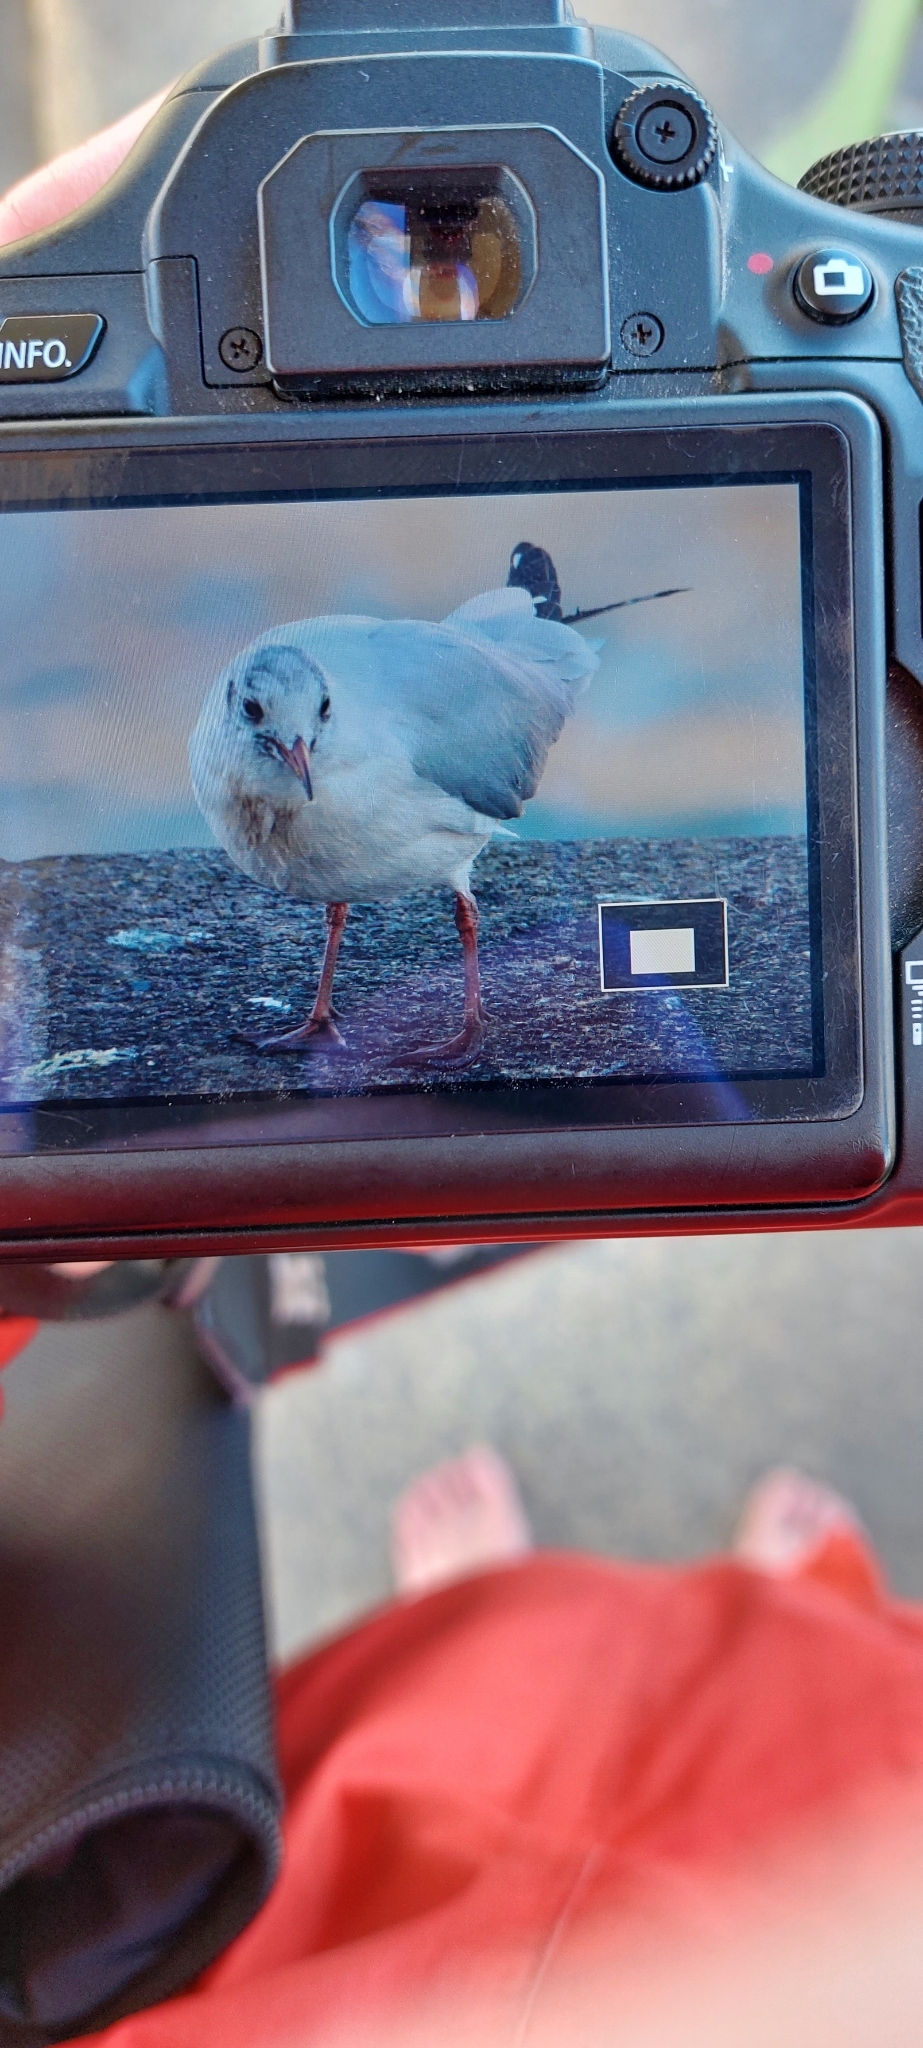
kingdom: Animalia
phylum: Chordata
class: Aves
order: Charadriiformes
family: Laridae
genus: Chroicocephalus
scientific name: Chroicocephalus ridibundus
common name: Black-headed gull
